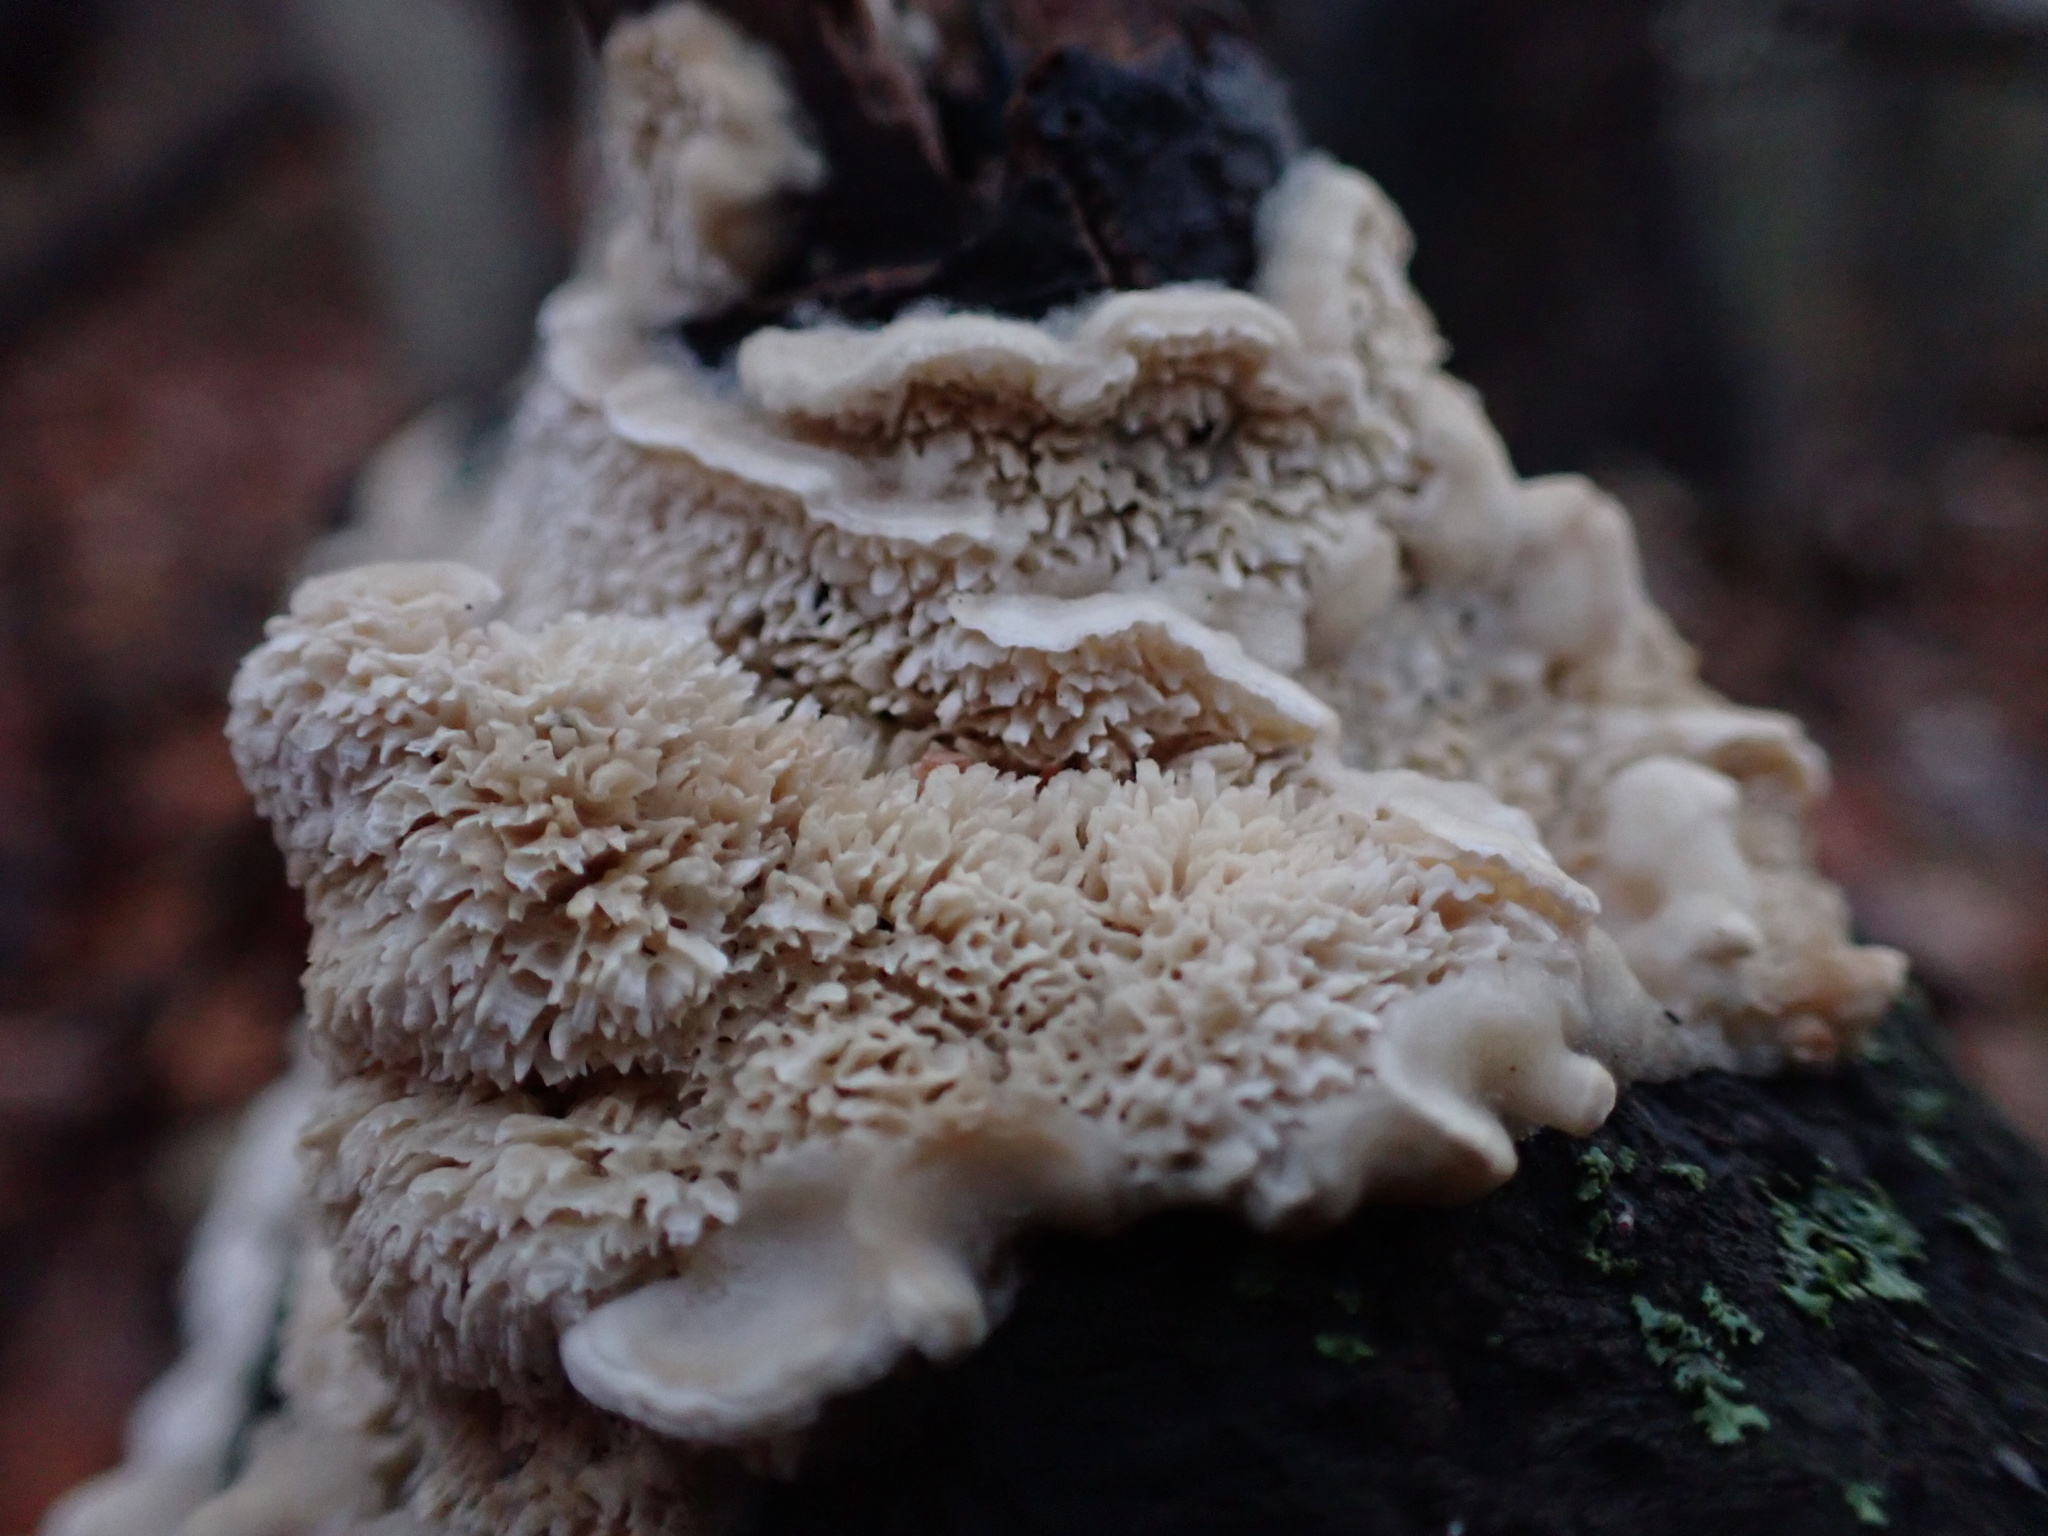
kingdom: Fungi
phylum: Basidiomycota
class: Agaricomycetes
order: Polyporales
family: Irpicaceae
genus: Irpex
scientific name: Irpex lacteus
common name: Milk-white toothed polypore
